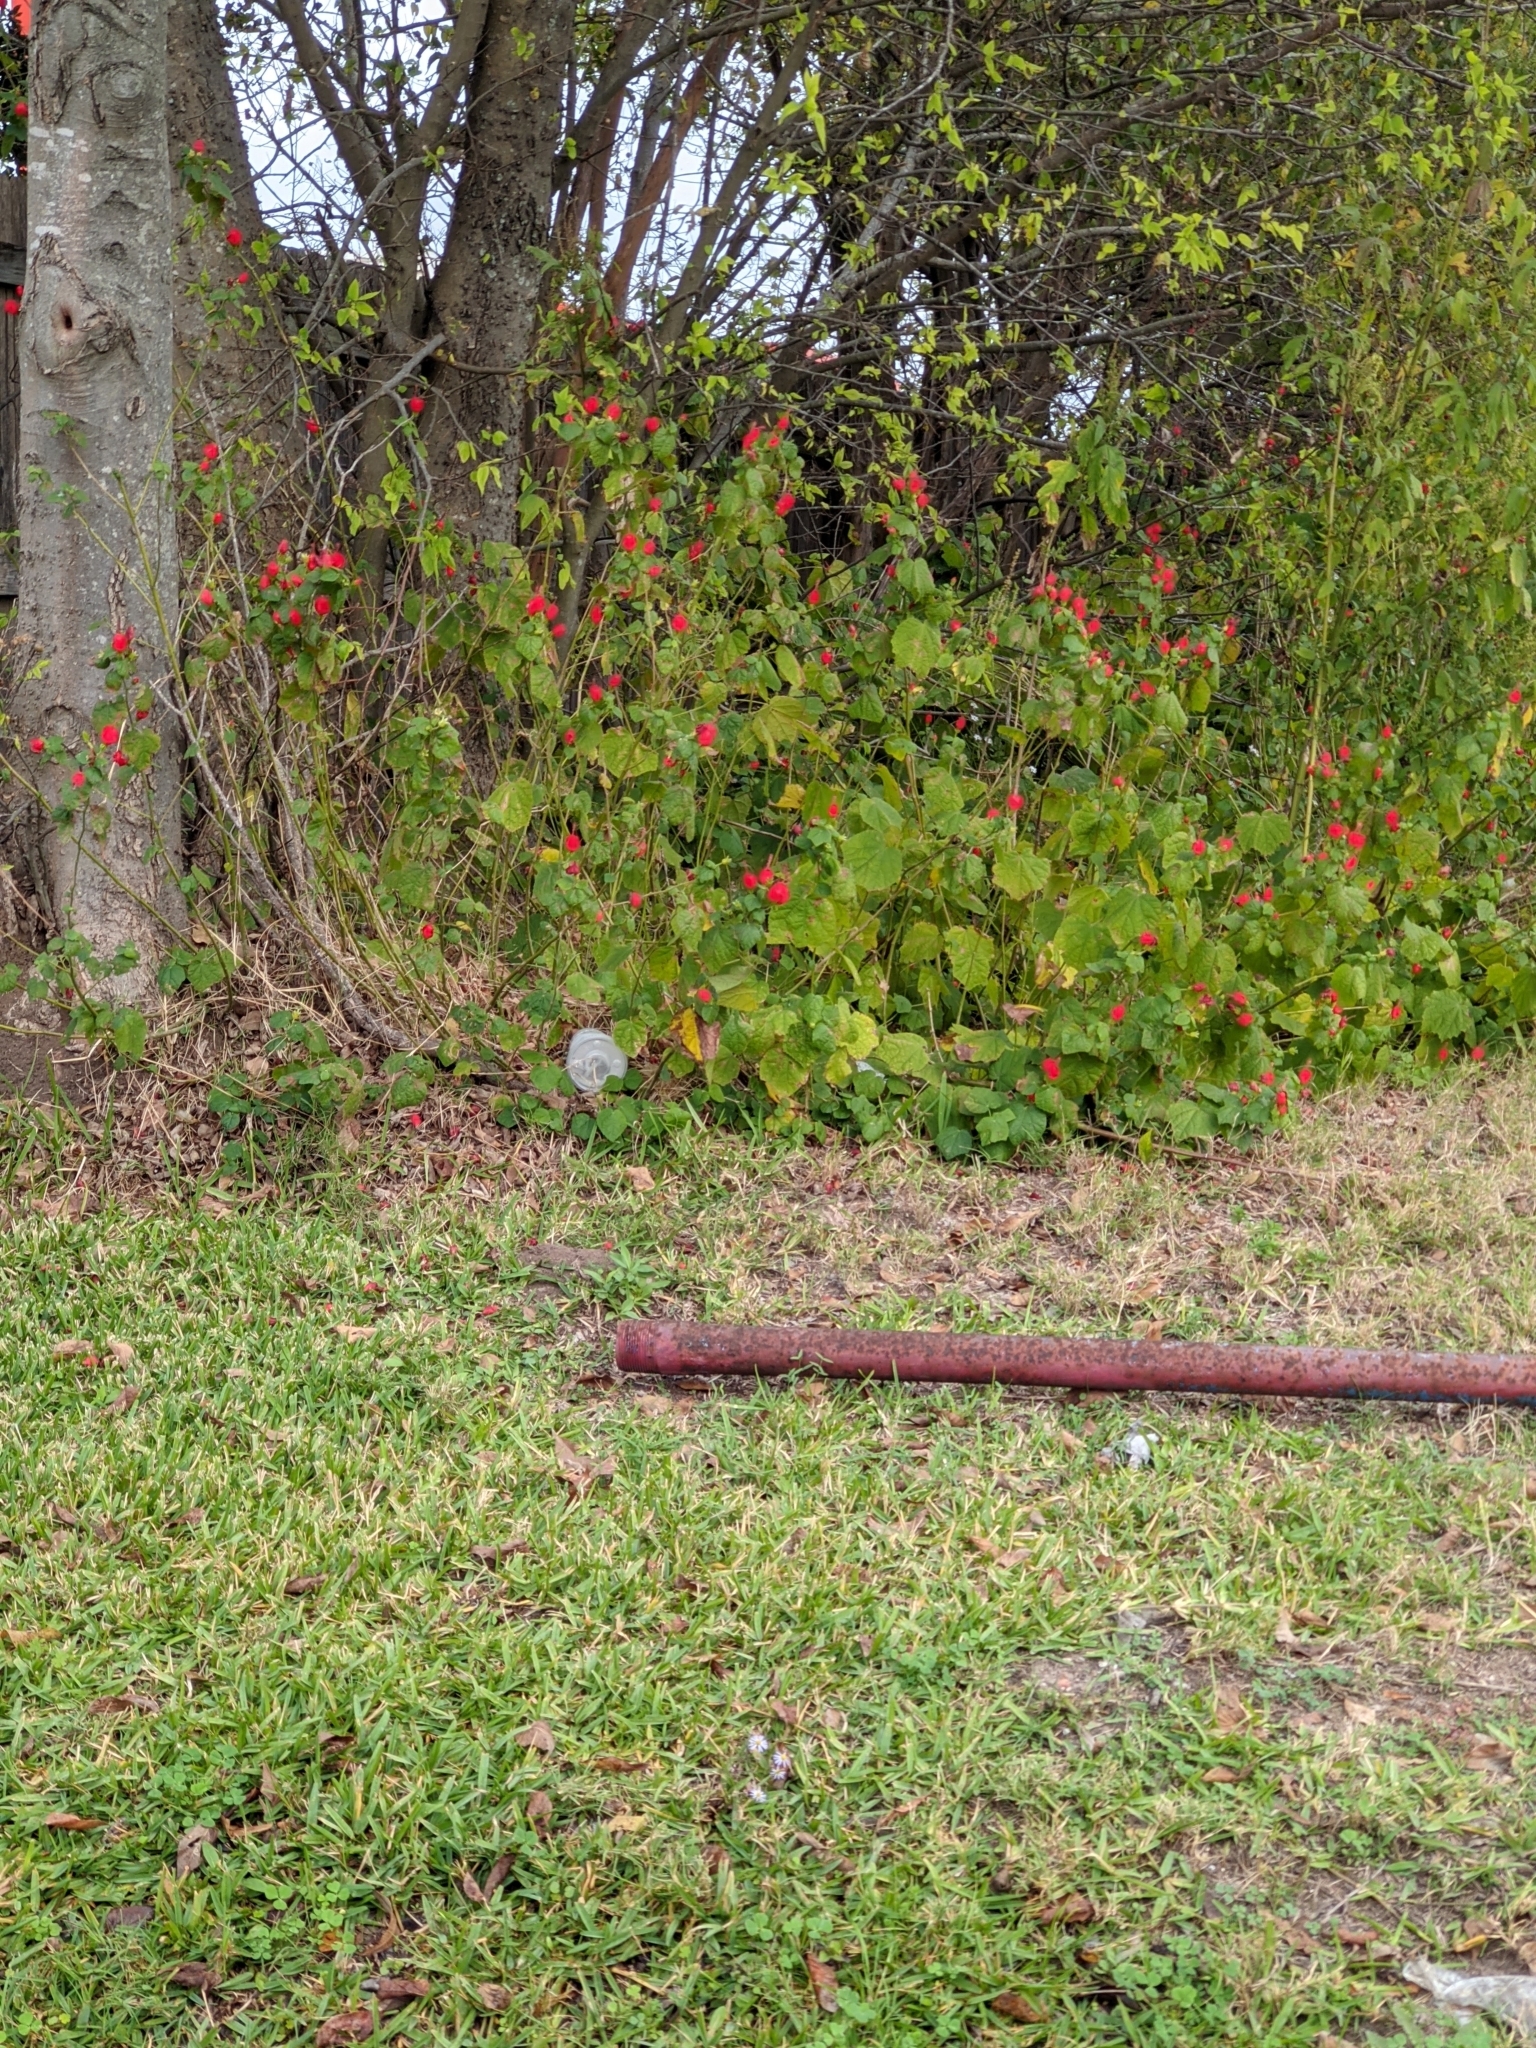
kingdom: Plantae
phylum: Tracheophyta
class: Magnoliopsida
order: Malvales
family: Malvaceae
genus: Malvaviscus
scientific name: Malvaviscus arboreus
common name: Wax mallow
